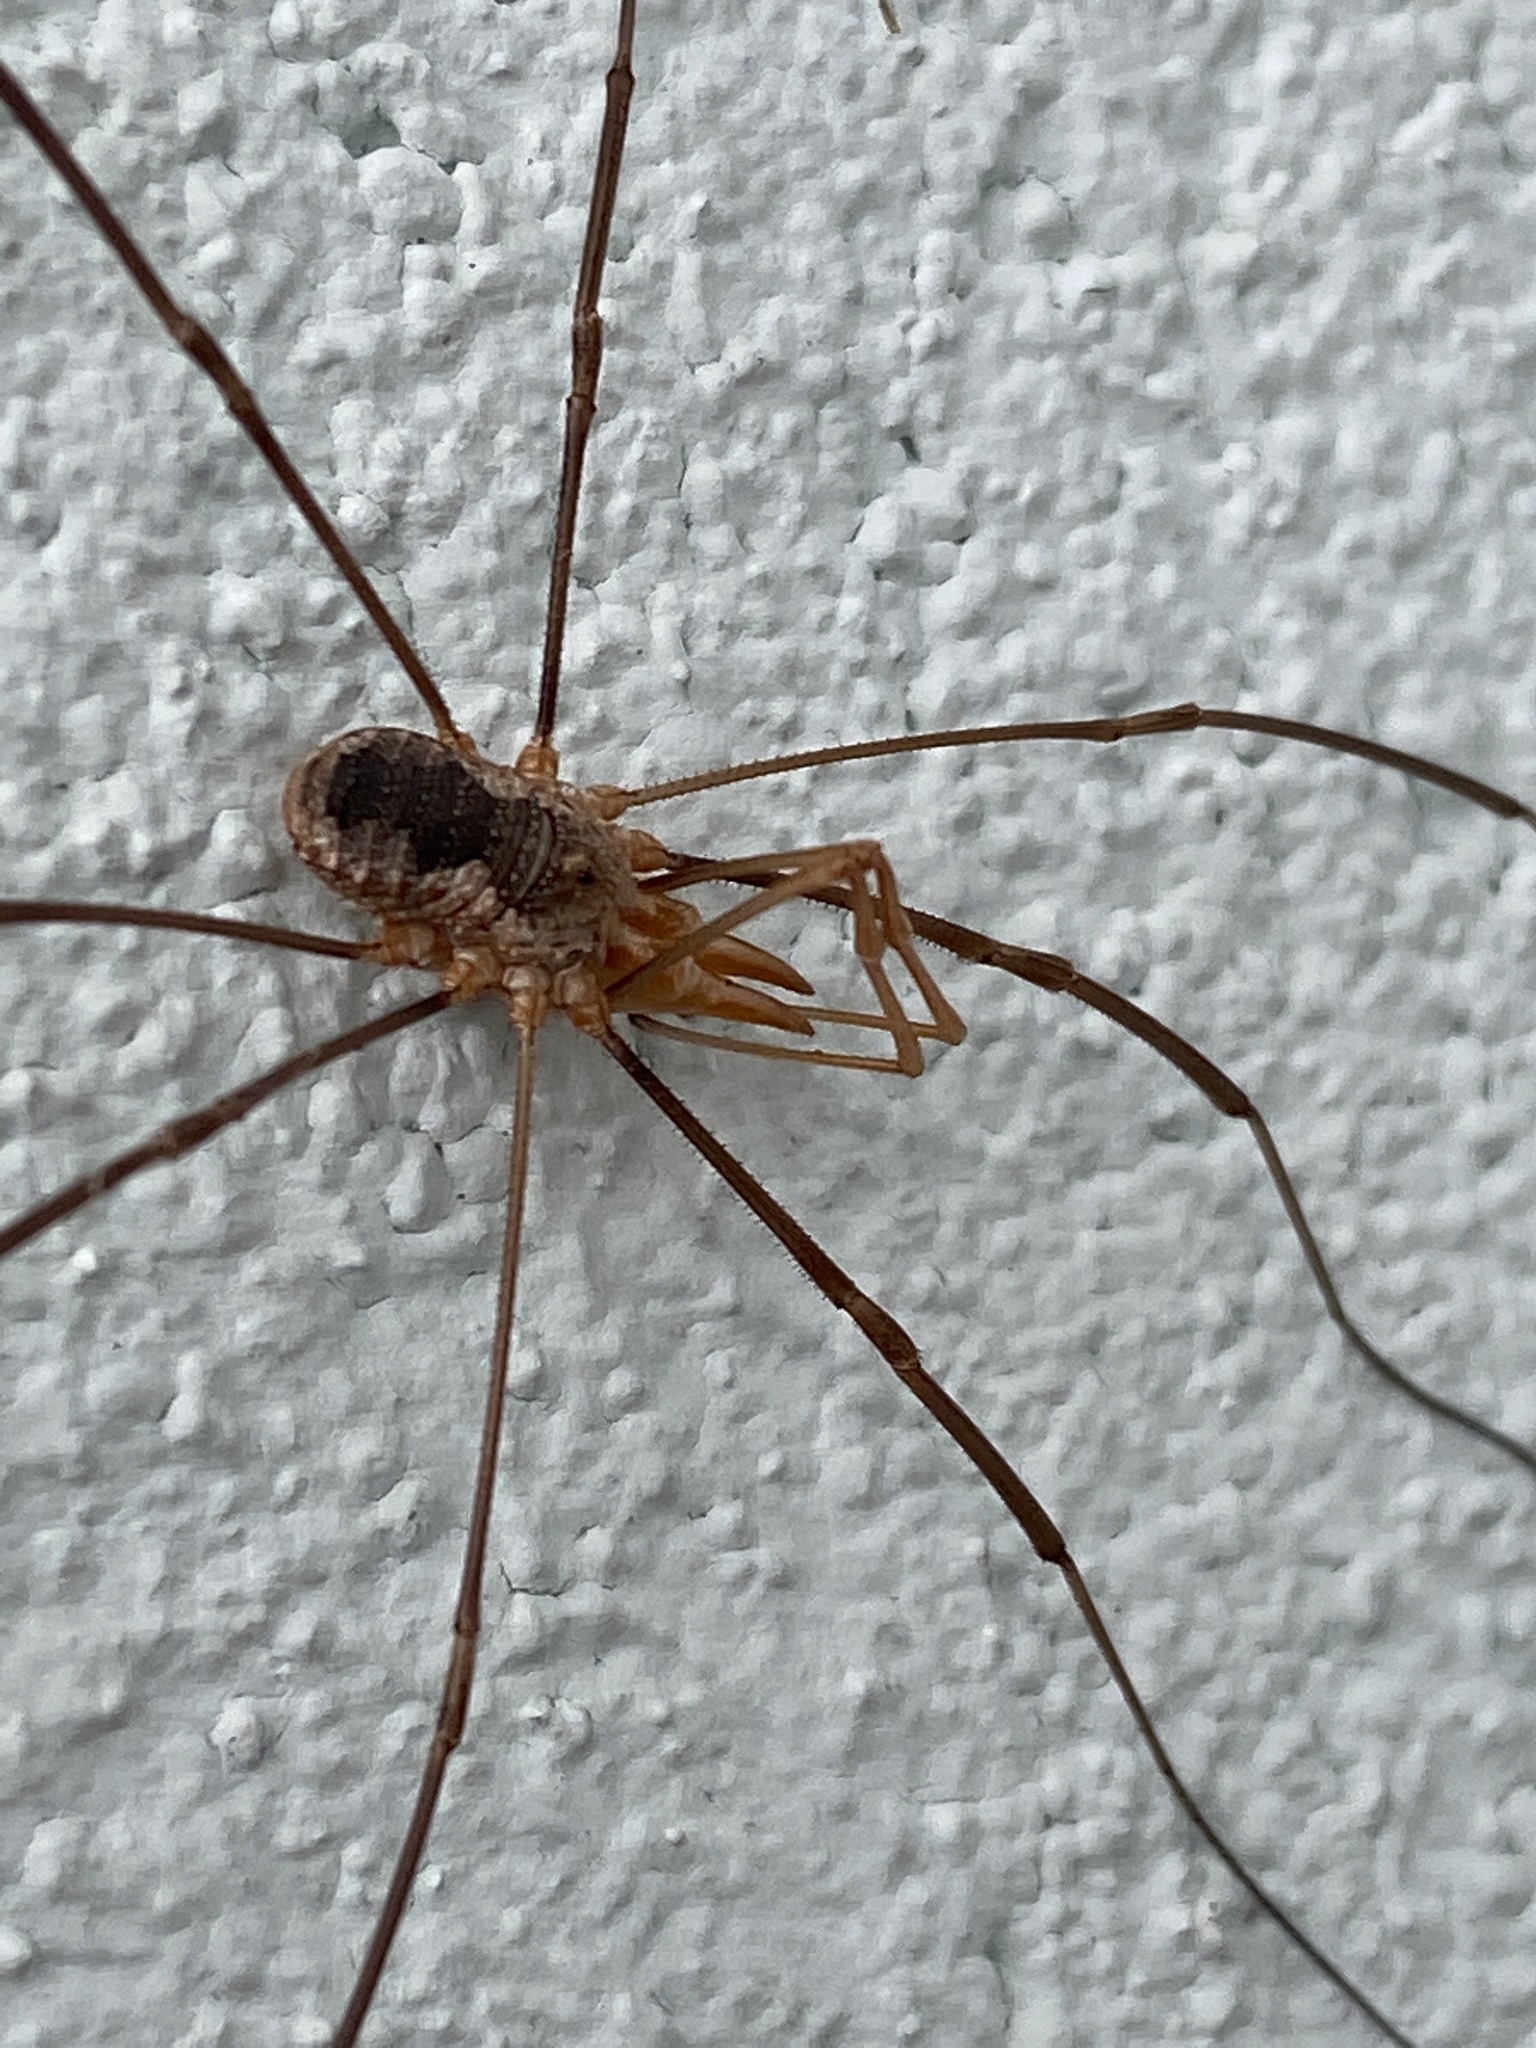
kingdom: Animalia
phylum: Arthropoda
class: Arachnida
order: Opiliones
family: Phalangiidae
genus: Phalangium
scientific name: Phalangium opilio
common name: Daddy longleg
